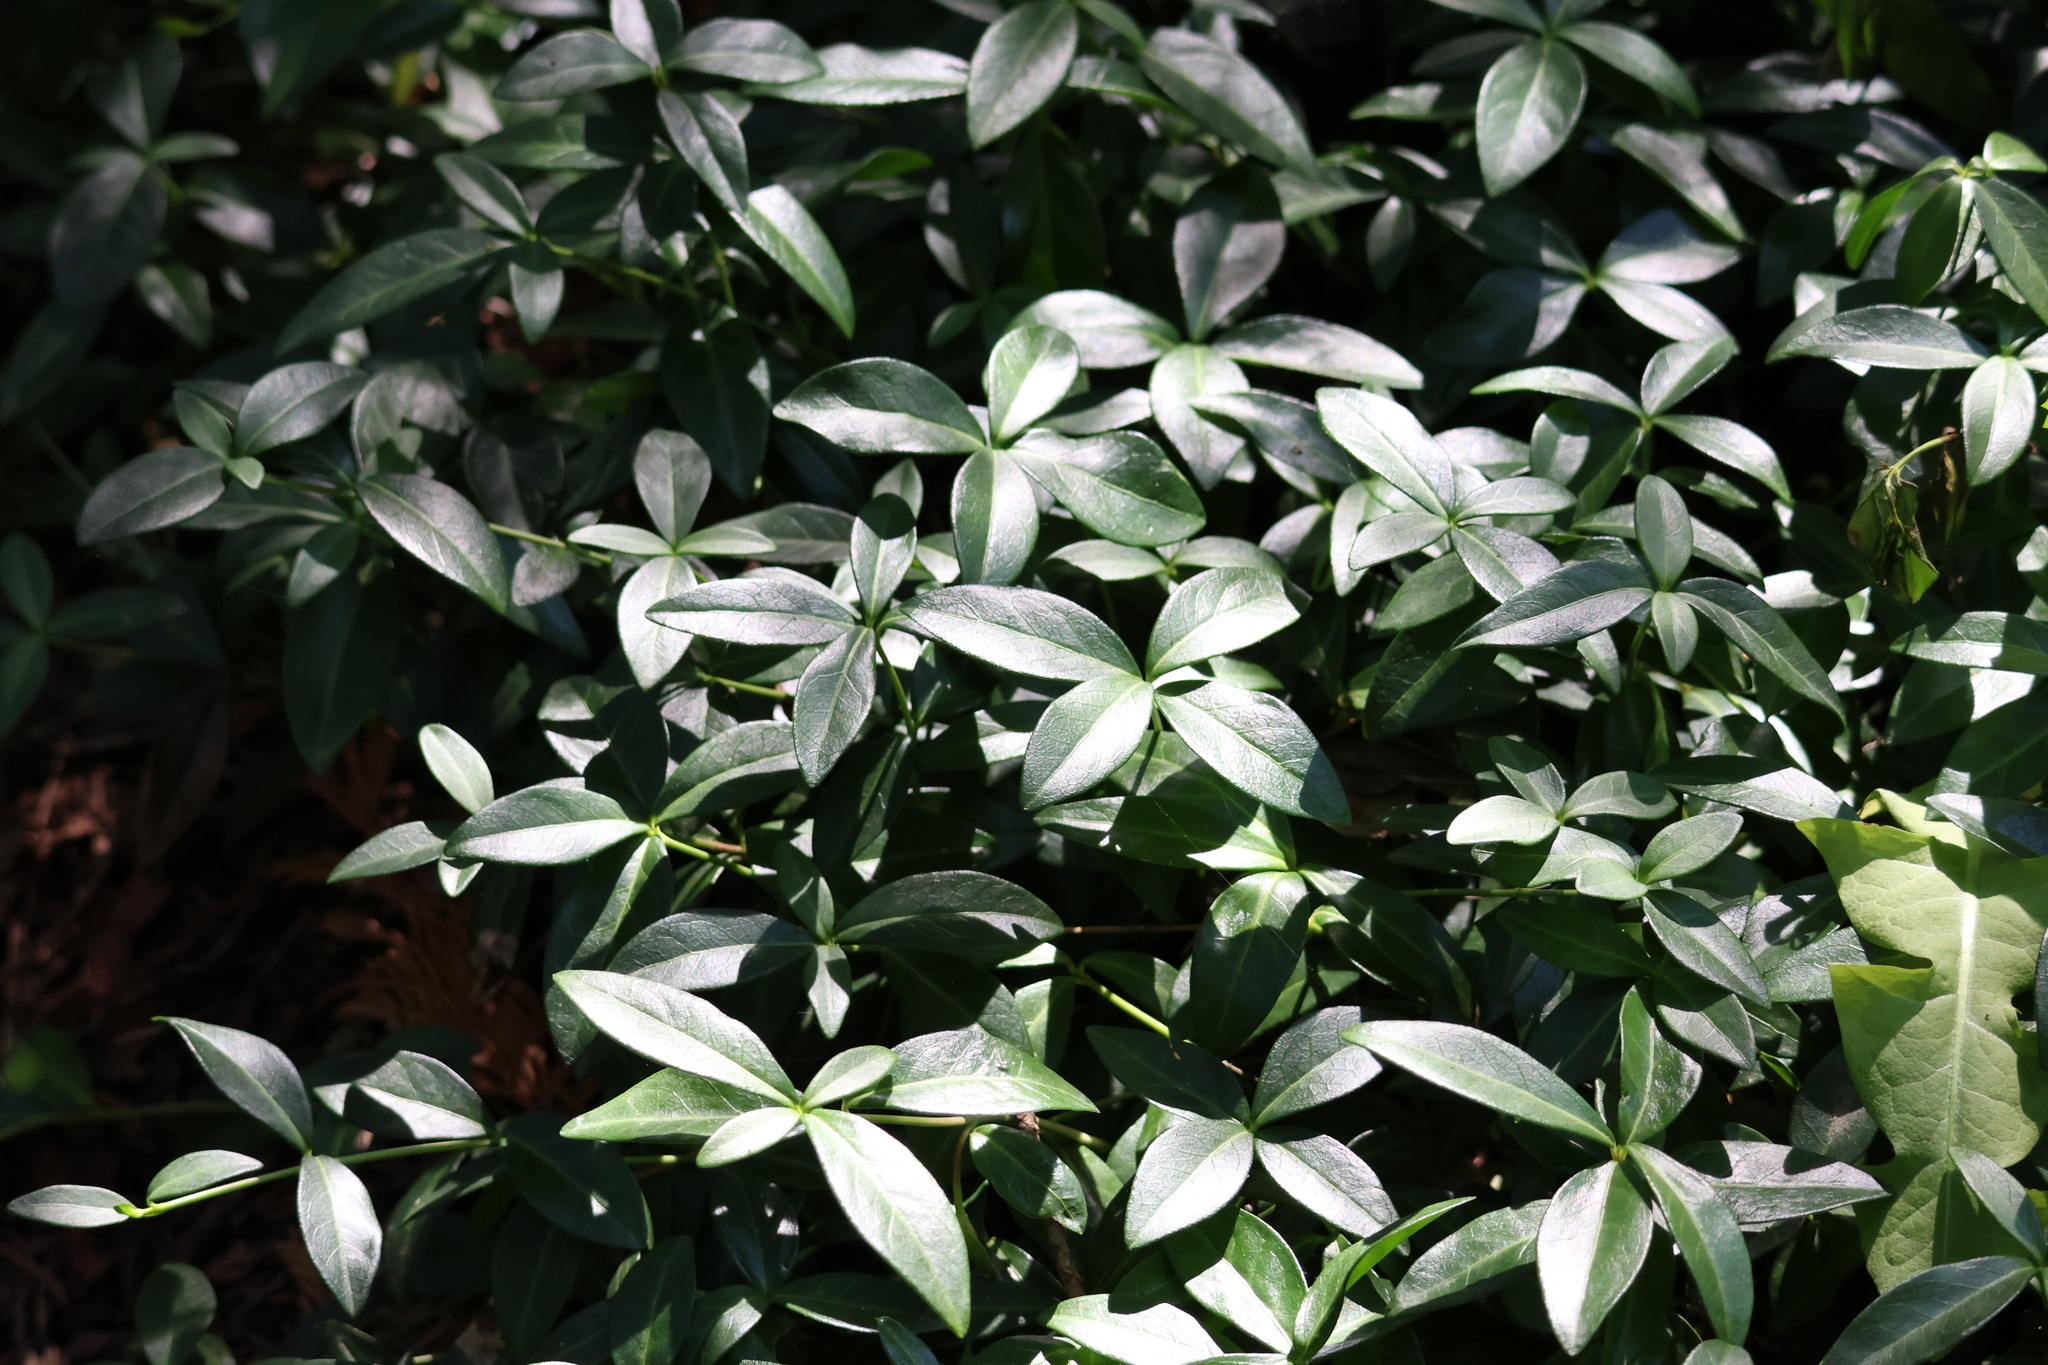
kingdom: Plantae
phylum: Tracheophyta
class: Magnoliopsida
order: Gentianales
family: Apocynaceae
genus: Vinca
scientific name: Vinca minor
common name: Lesser periwinkle
